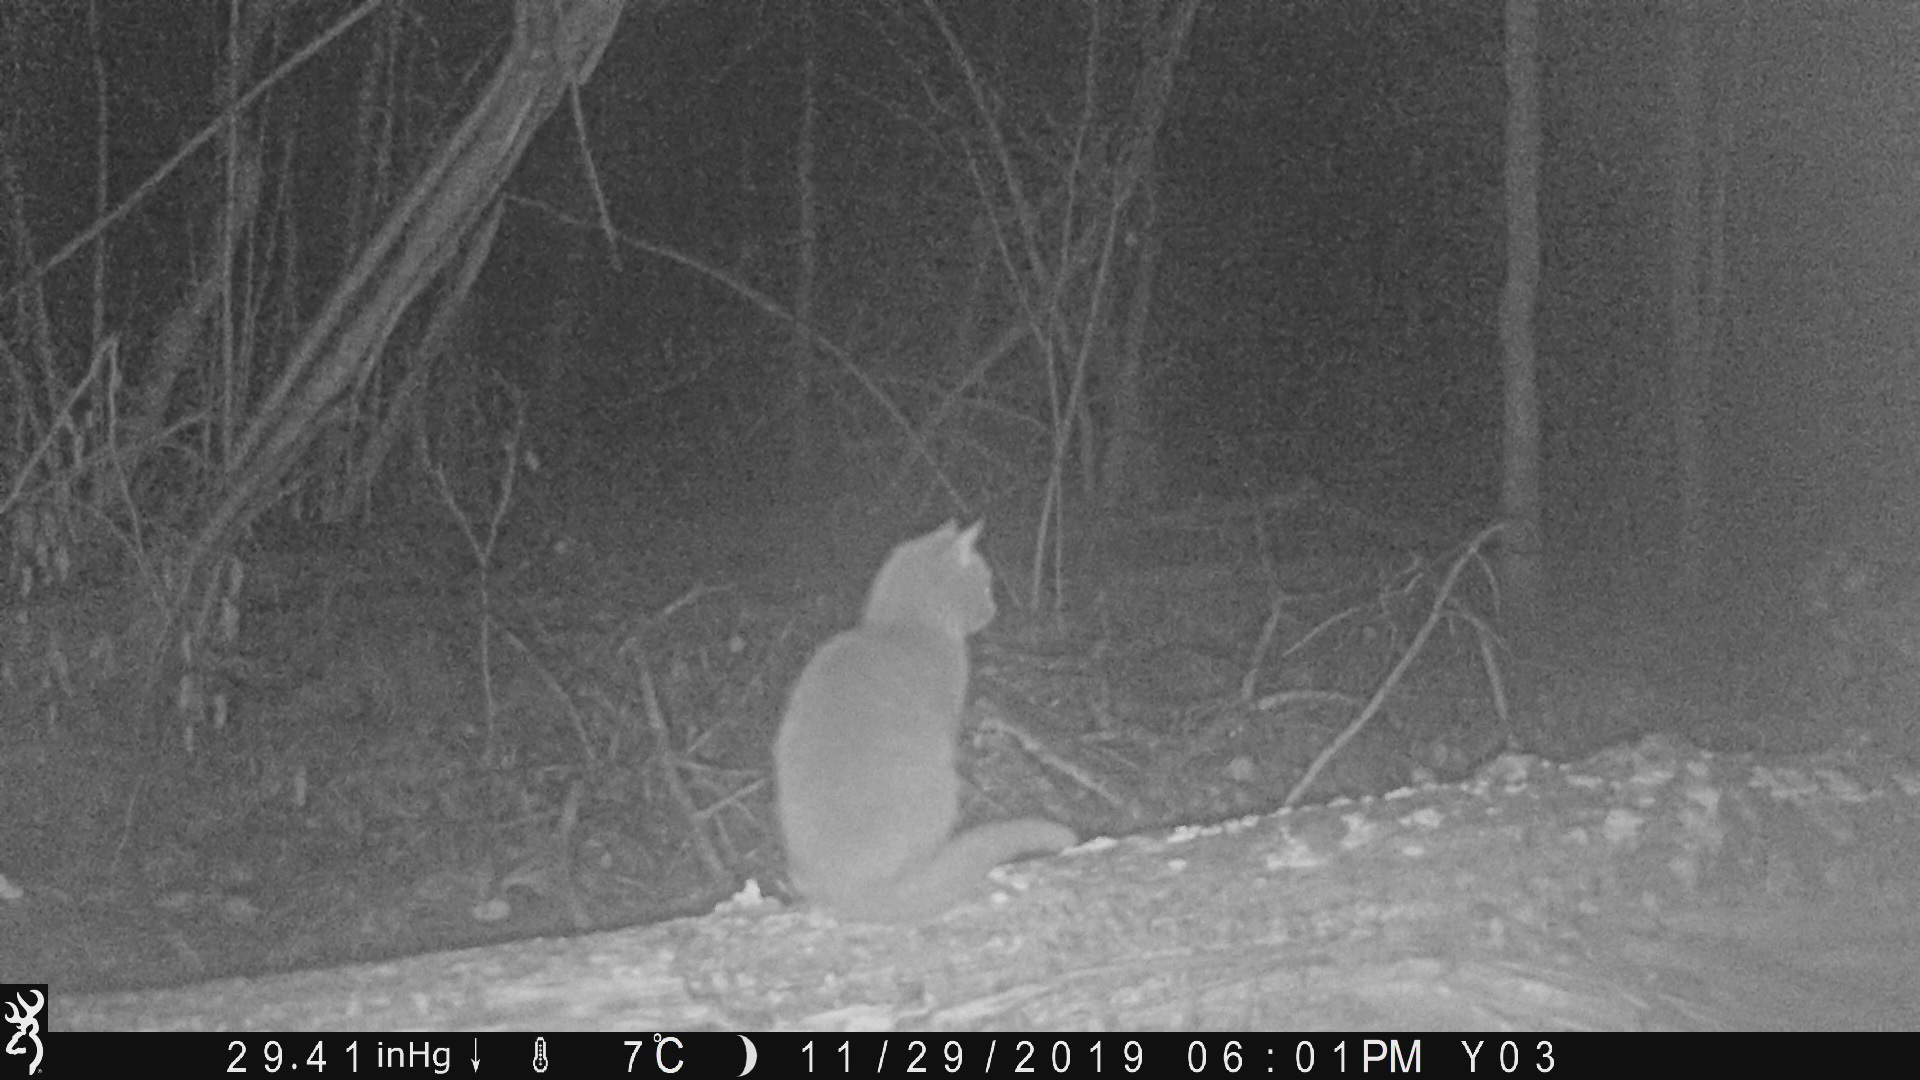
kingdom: Animalia
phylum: Chordata
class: Mammalia
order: Carnivora
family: Felidae
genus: Felis
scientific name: Felis catus
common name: Domestic cat
